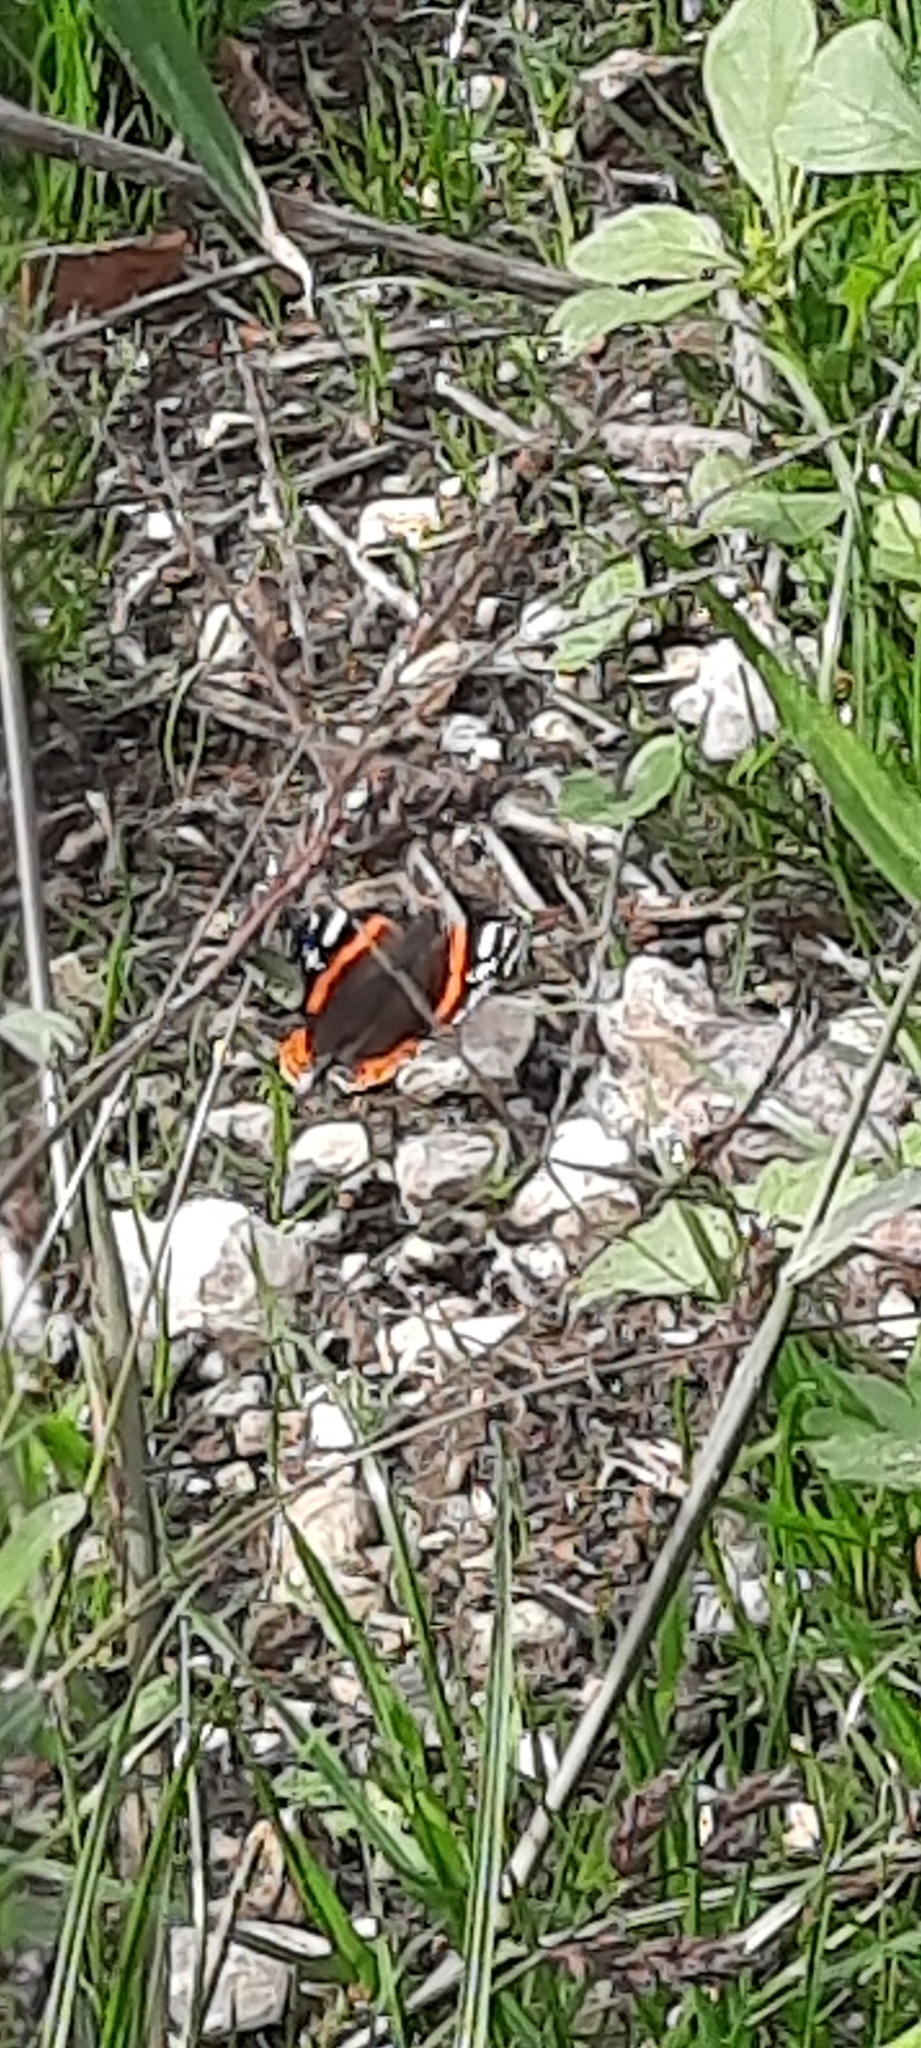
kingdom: Animalia
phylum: Arthropoda
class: Insecta
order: Lepidoptera
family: Nymphalidae
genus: Vanessa
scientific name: Vanessa atalanta
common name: Red admiral
